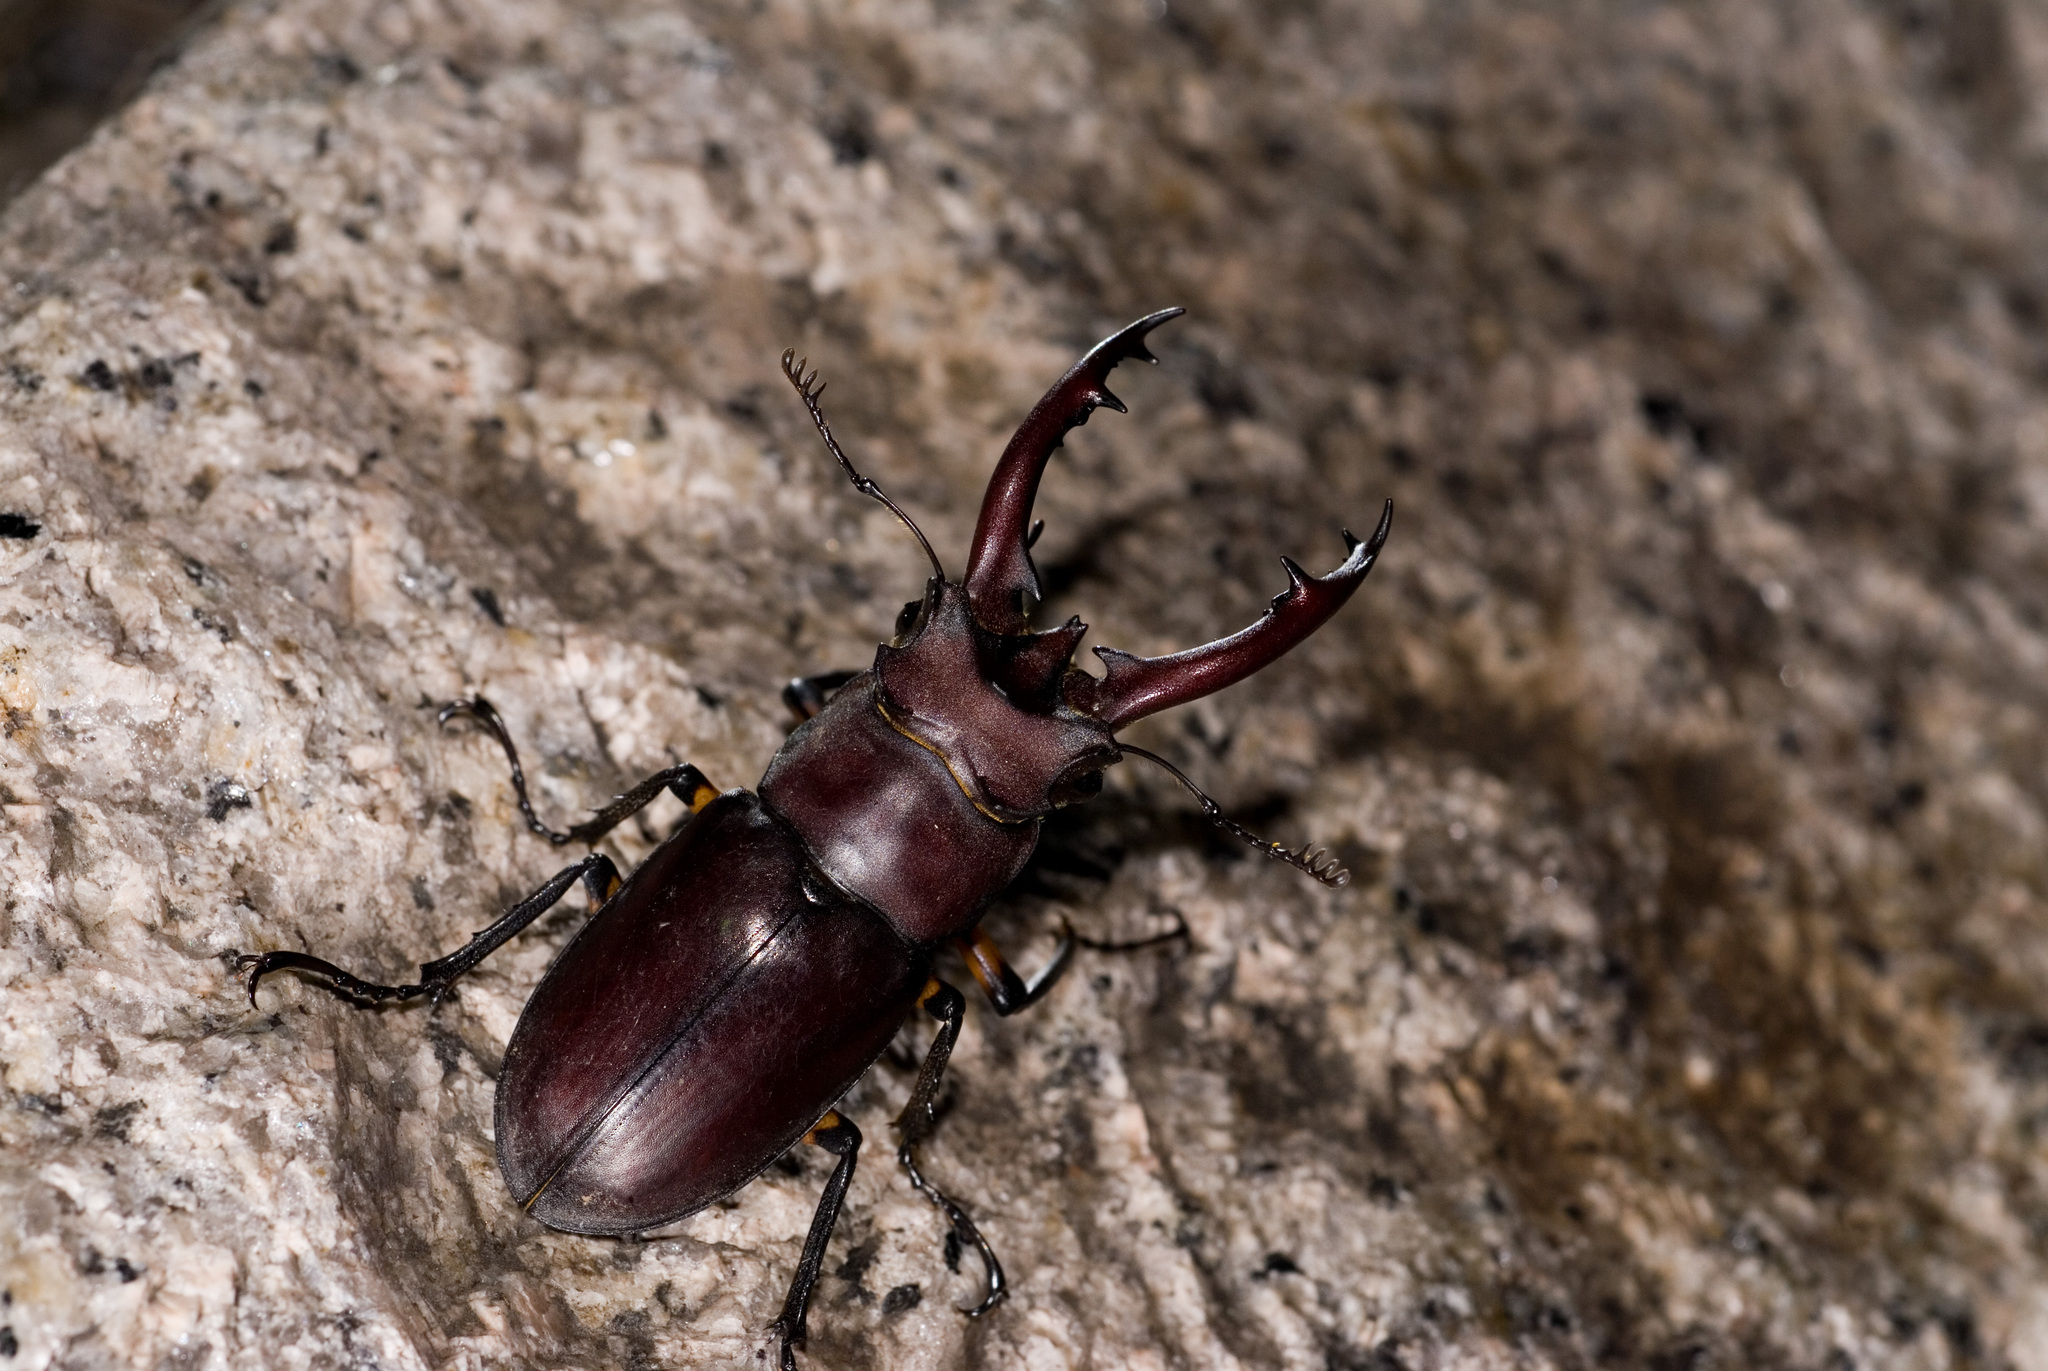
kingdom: Animalia
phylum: Arthropoda
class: Insecta
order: Coleoptera
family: Lucanidae
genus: Lucanus
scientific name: Lucanus formosanus
